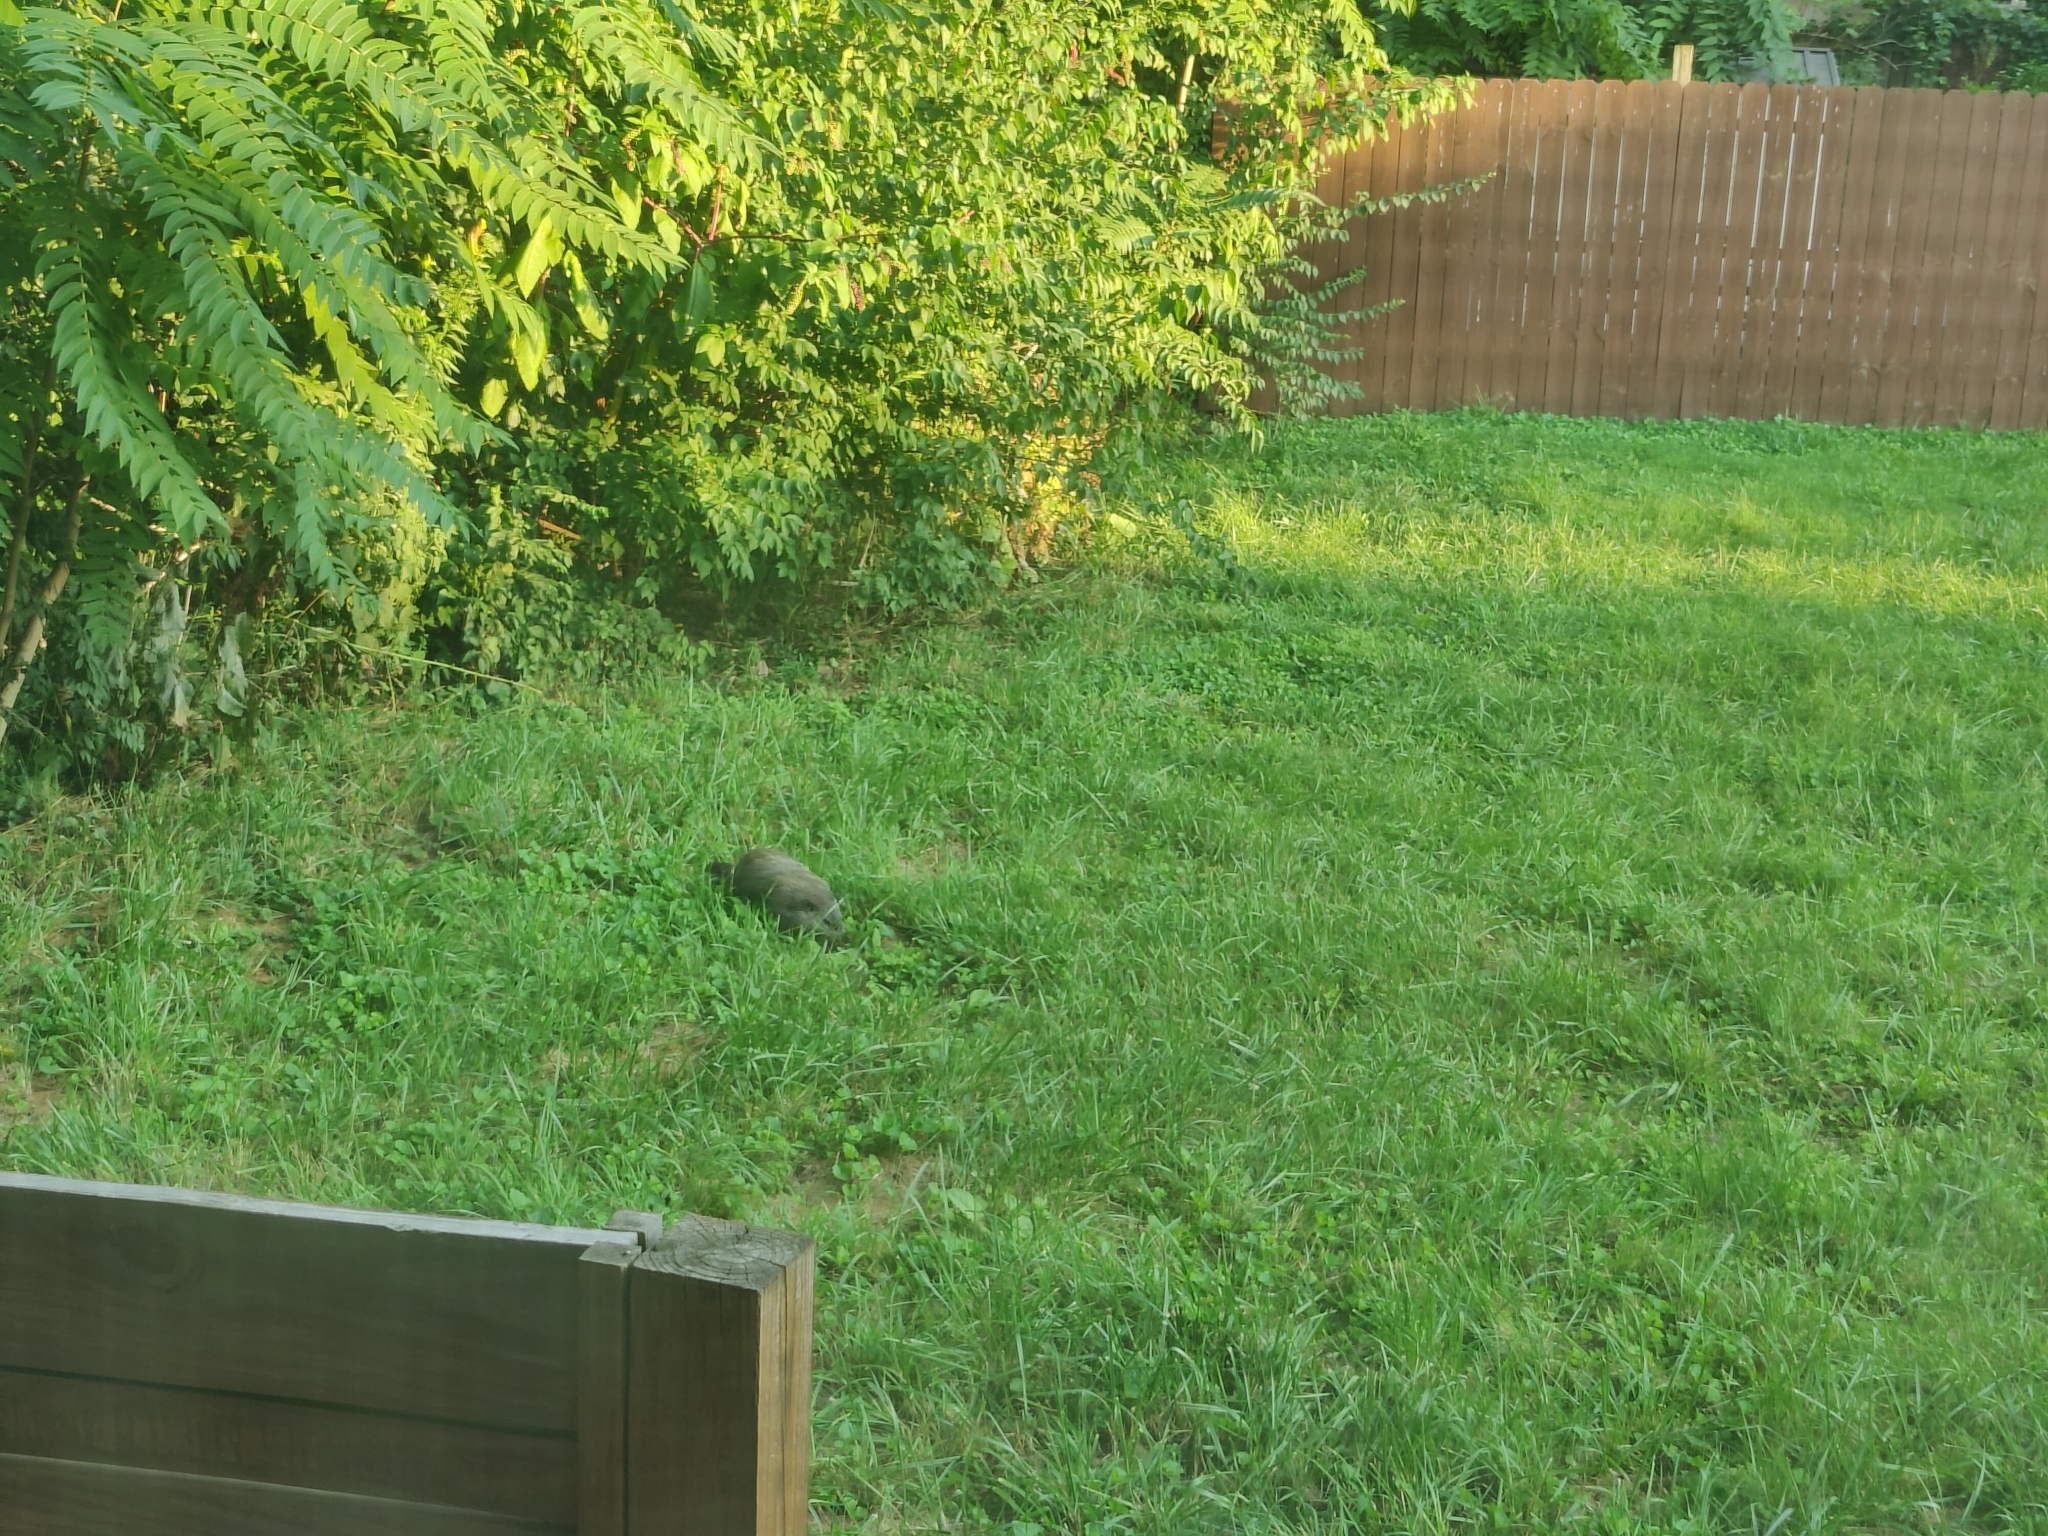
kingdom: Animalia
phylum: Chordata
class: Mammalia
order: Rodentia
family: Sciuridae
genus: Marmota
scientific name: Marmota monax
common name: Groundhog
